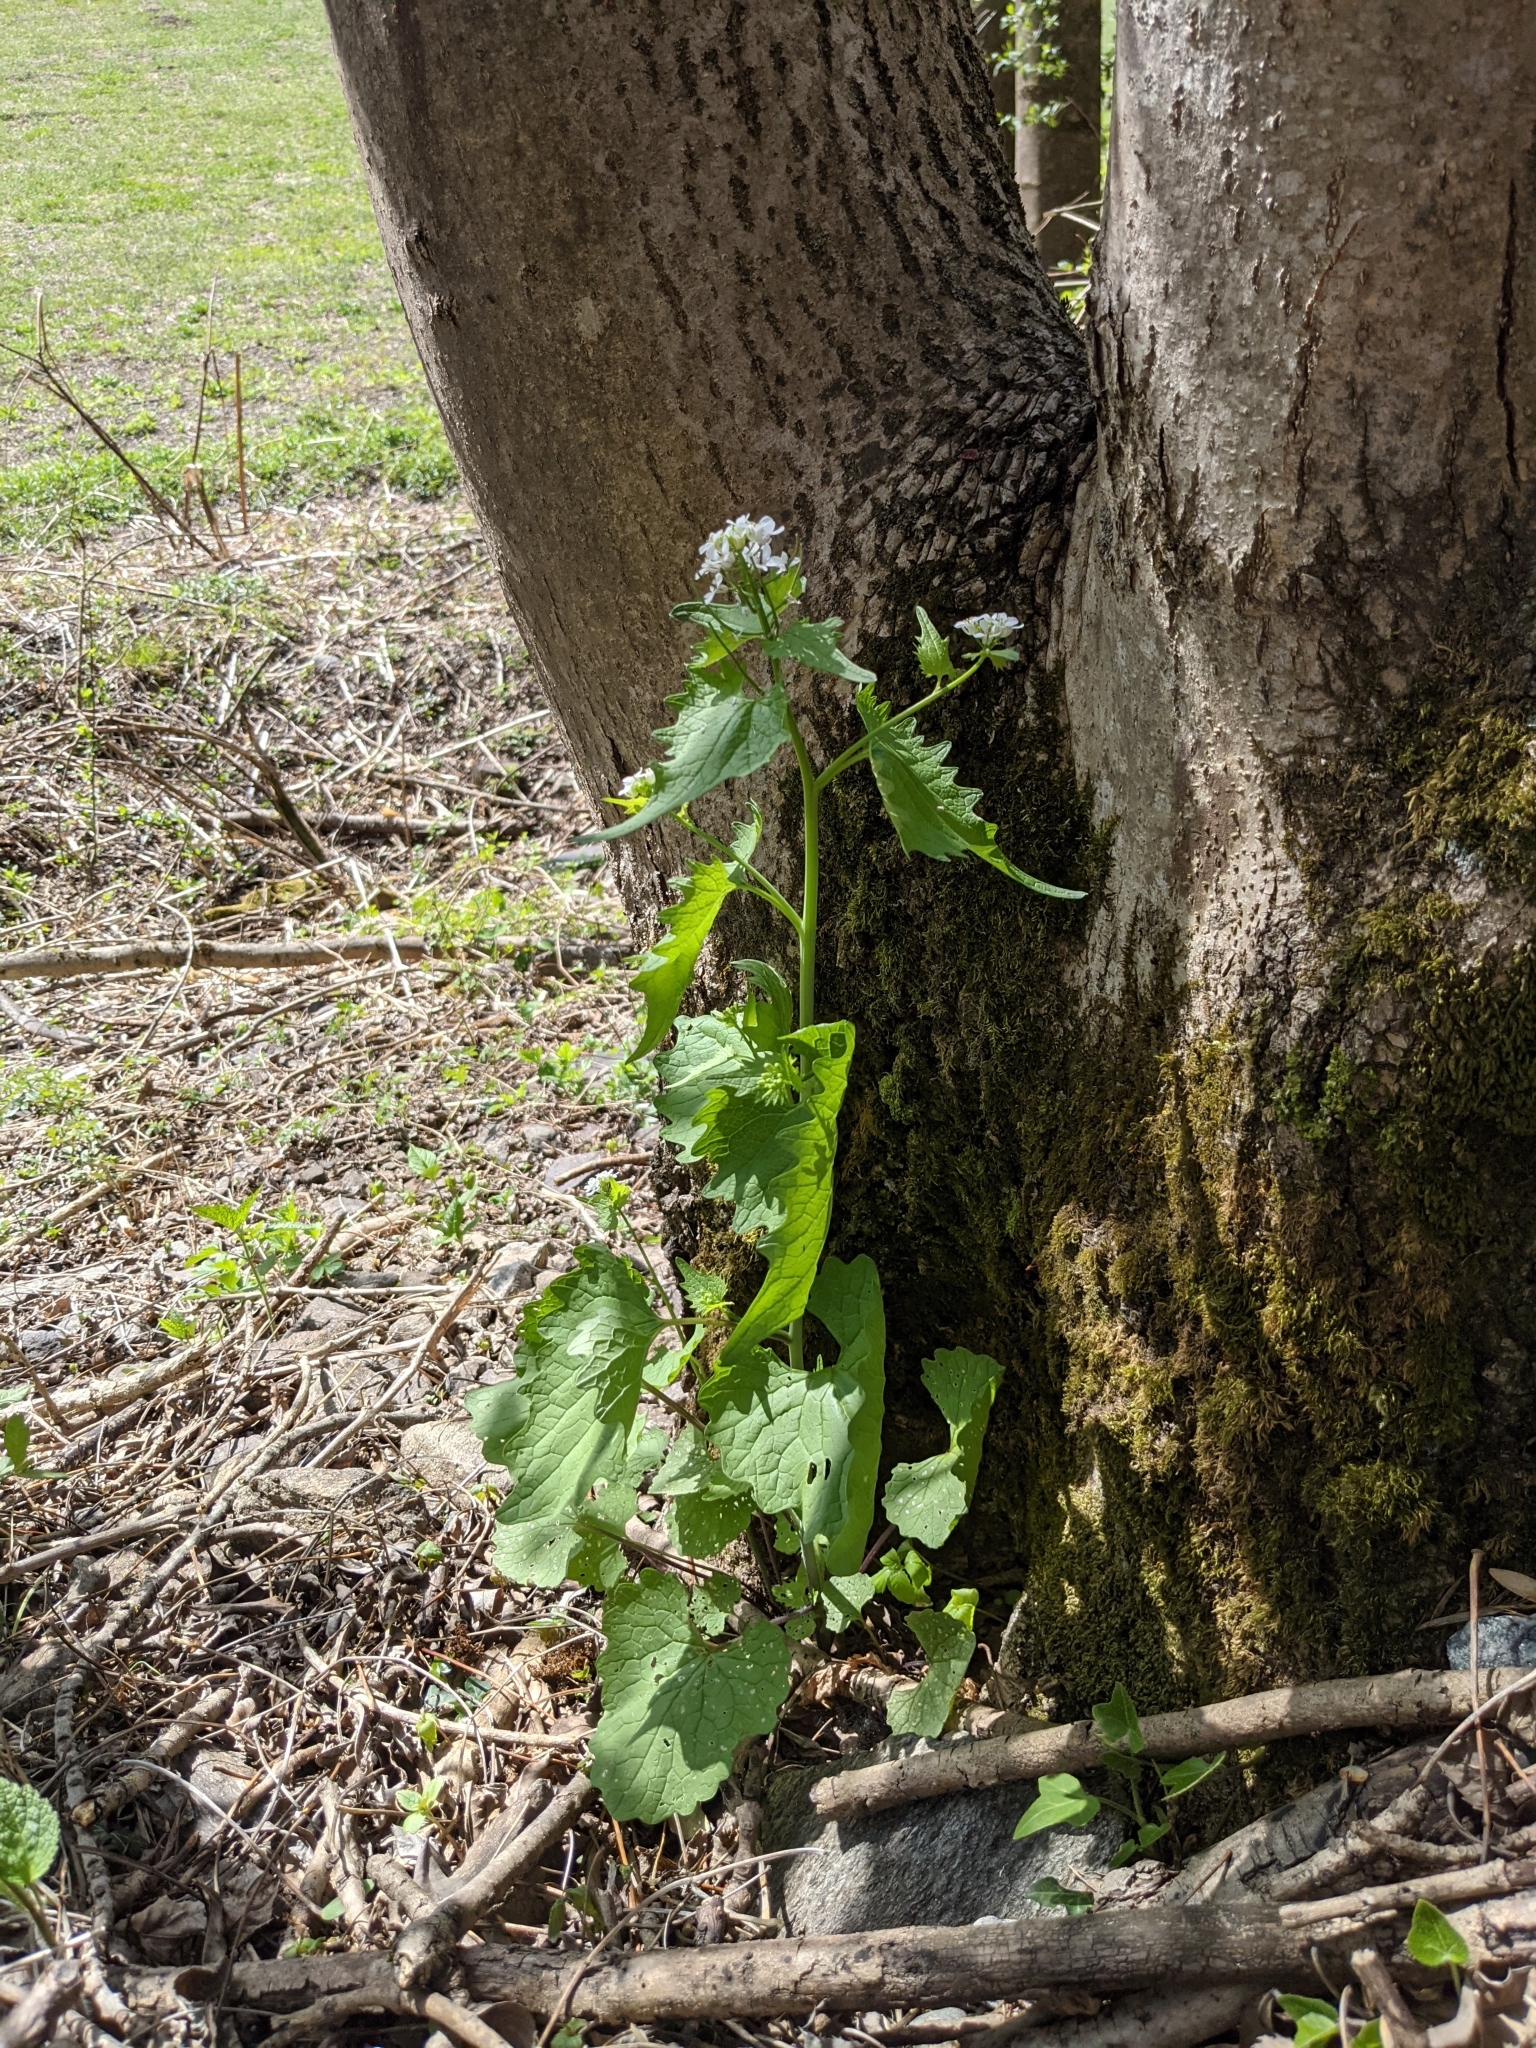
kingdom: Plantae
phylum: Tracheophyta
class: Magnoliopsida
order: Brassicales
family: Brassicaceae
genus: Alliaria
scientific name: Alliaria petiolata
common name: Garlic mustard
